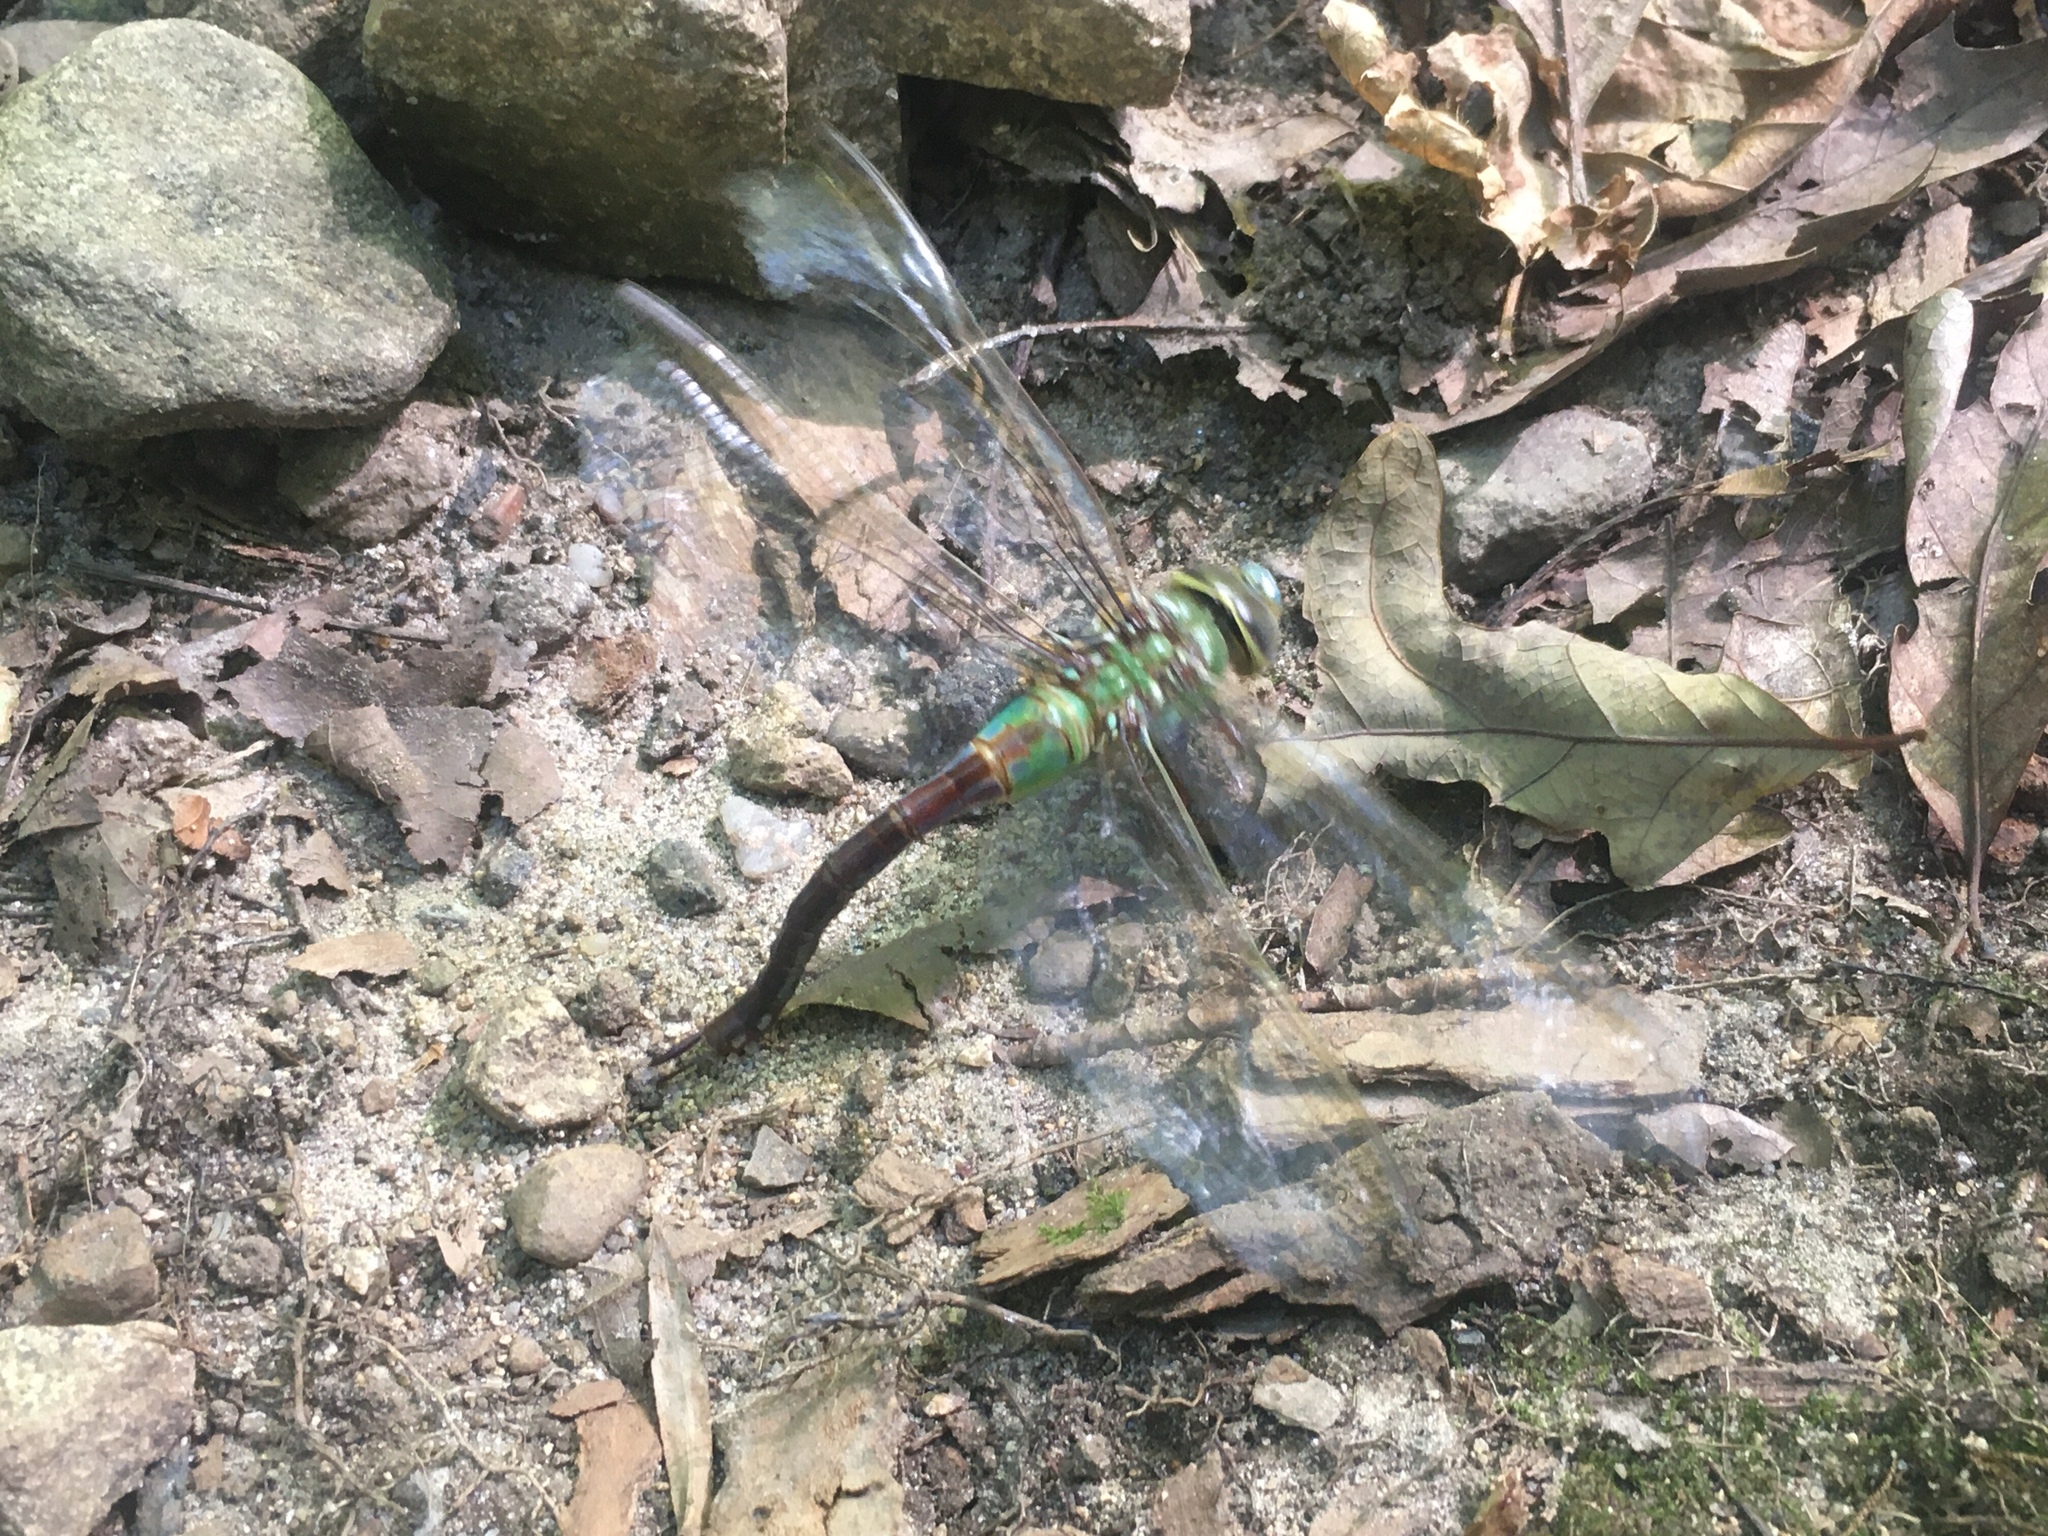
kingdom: Animalia
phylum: Arthropoda
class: Insecta
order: Odonata
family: Aeshnidae
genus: Anax
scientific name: Anax junius
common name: Common green darner
